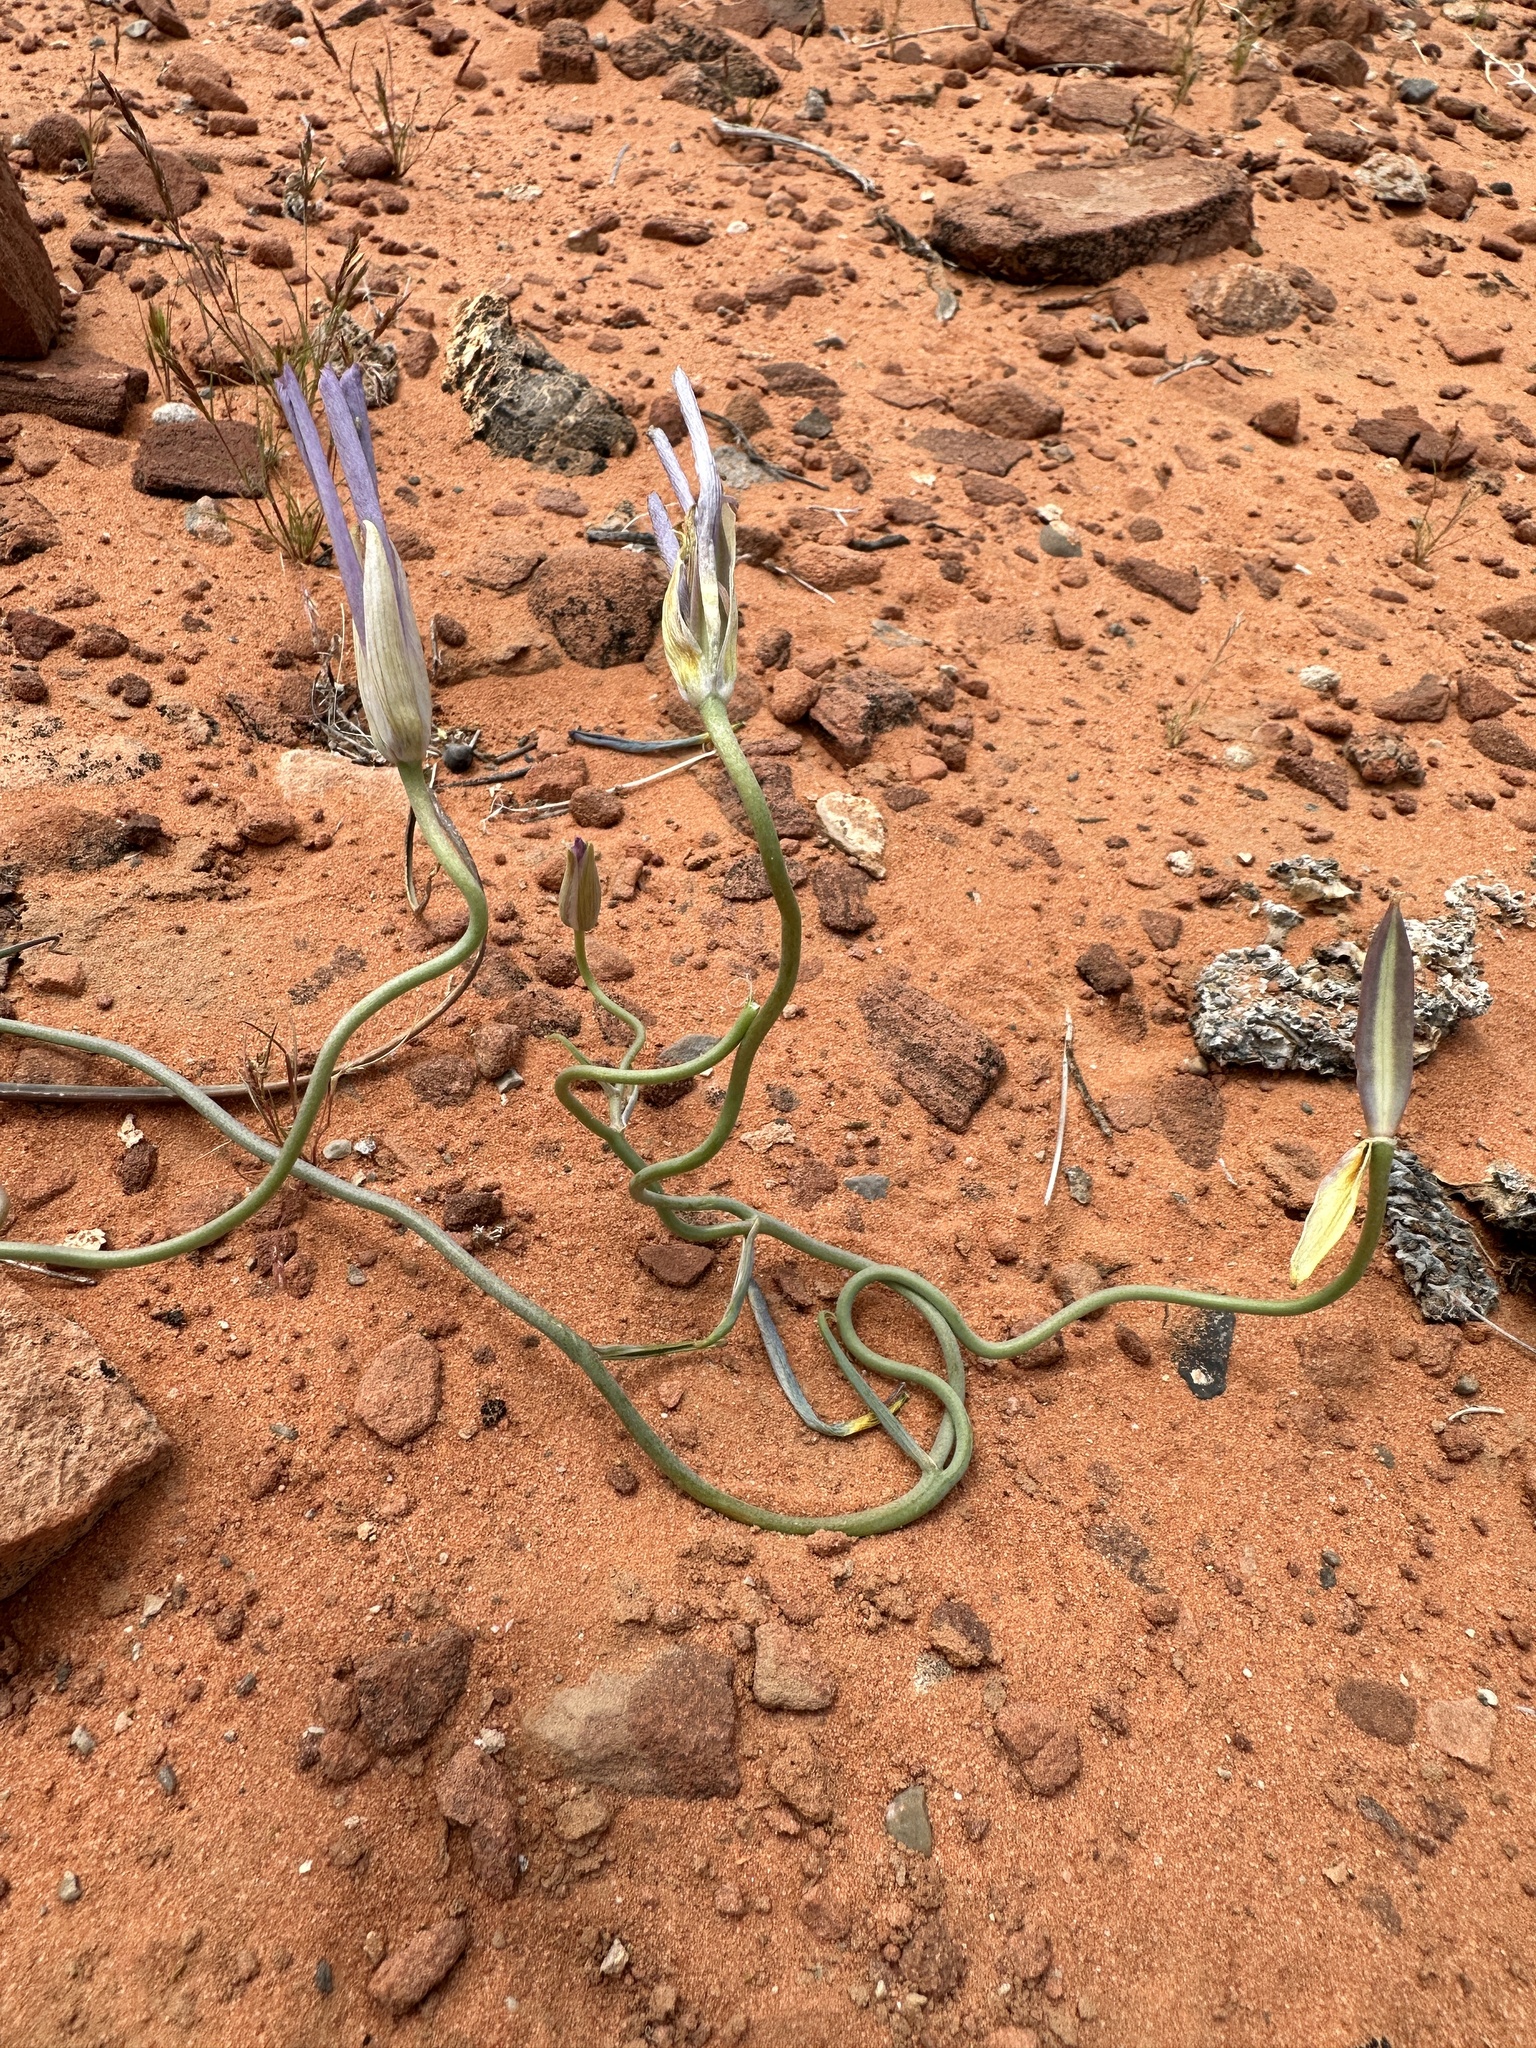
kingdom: Plantae
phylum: Tracheophyta
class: Liliopsida
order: Liliales
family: Liliaceae
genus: Calochortus
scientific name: Calochortus flexuosus
